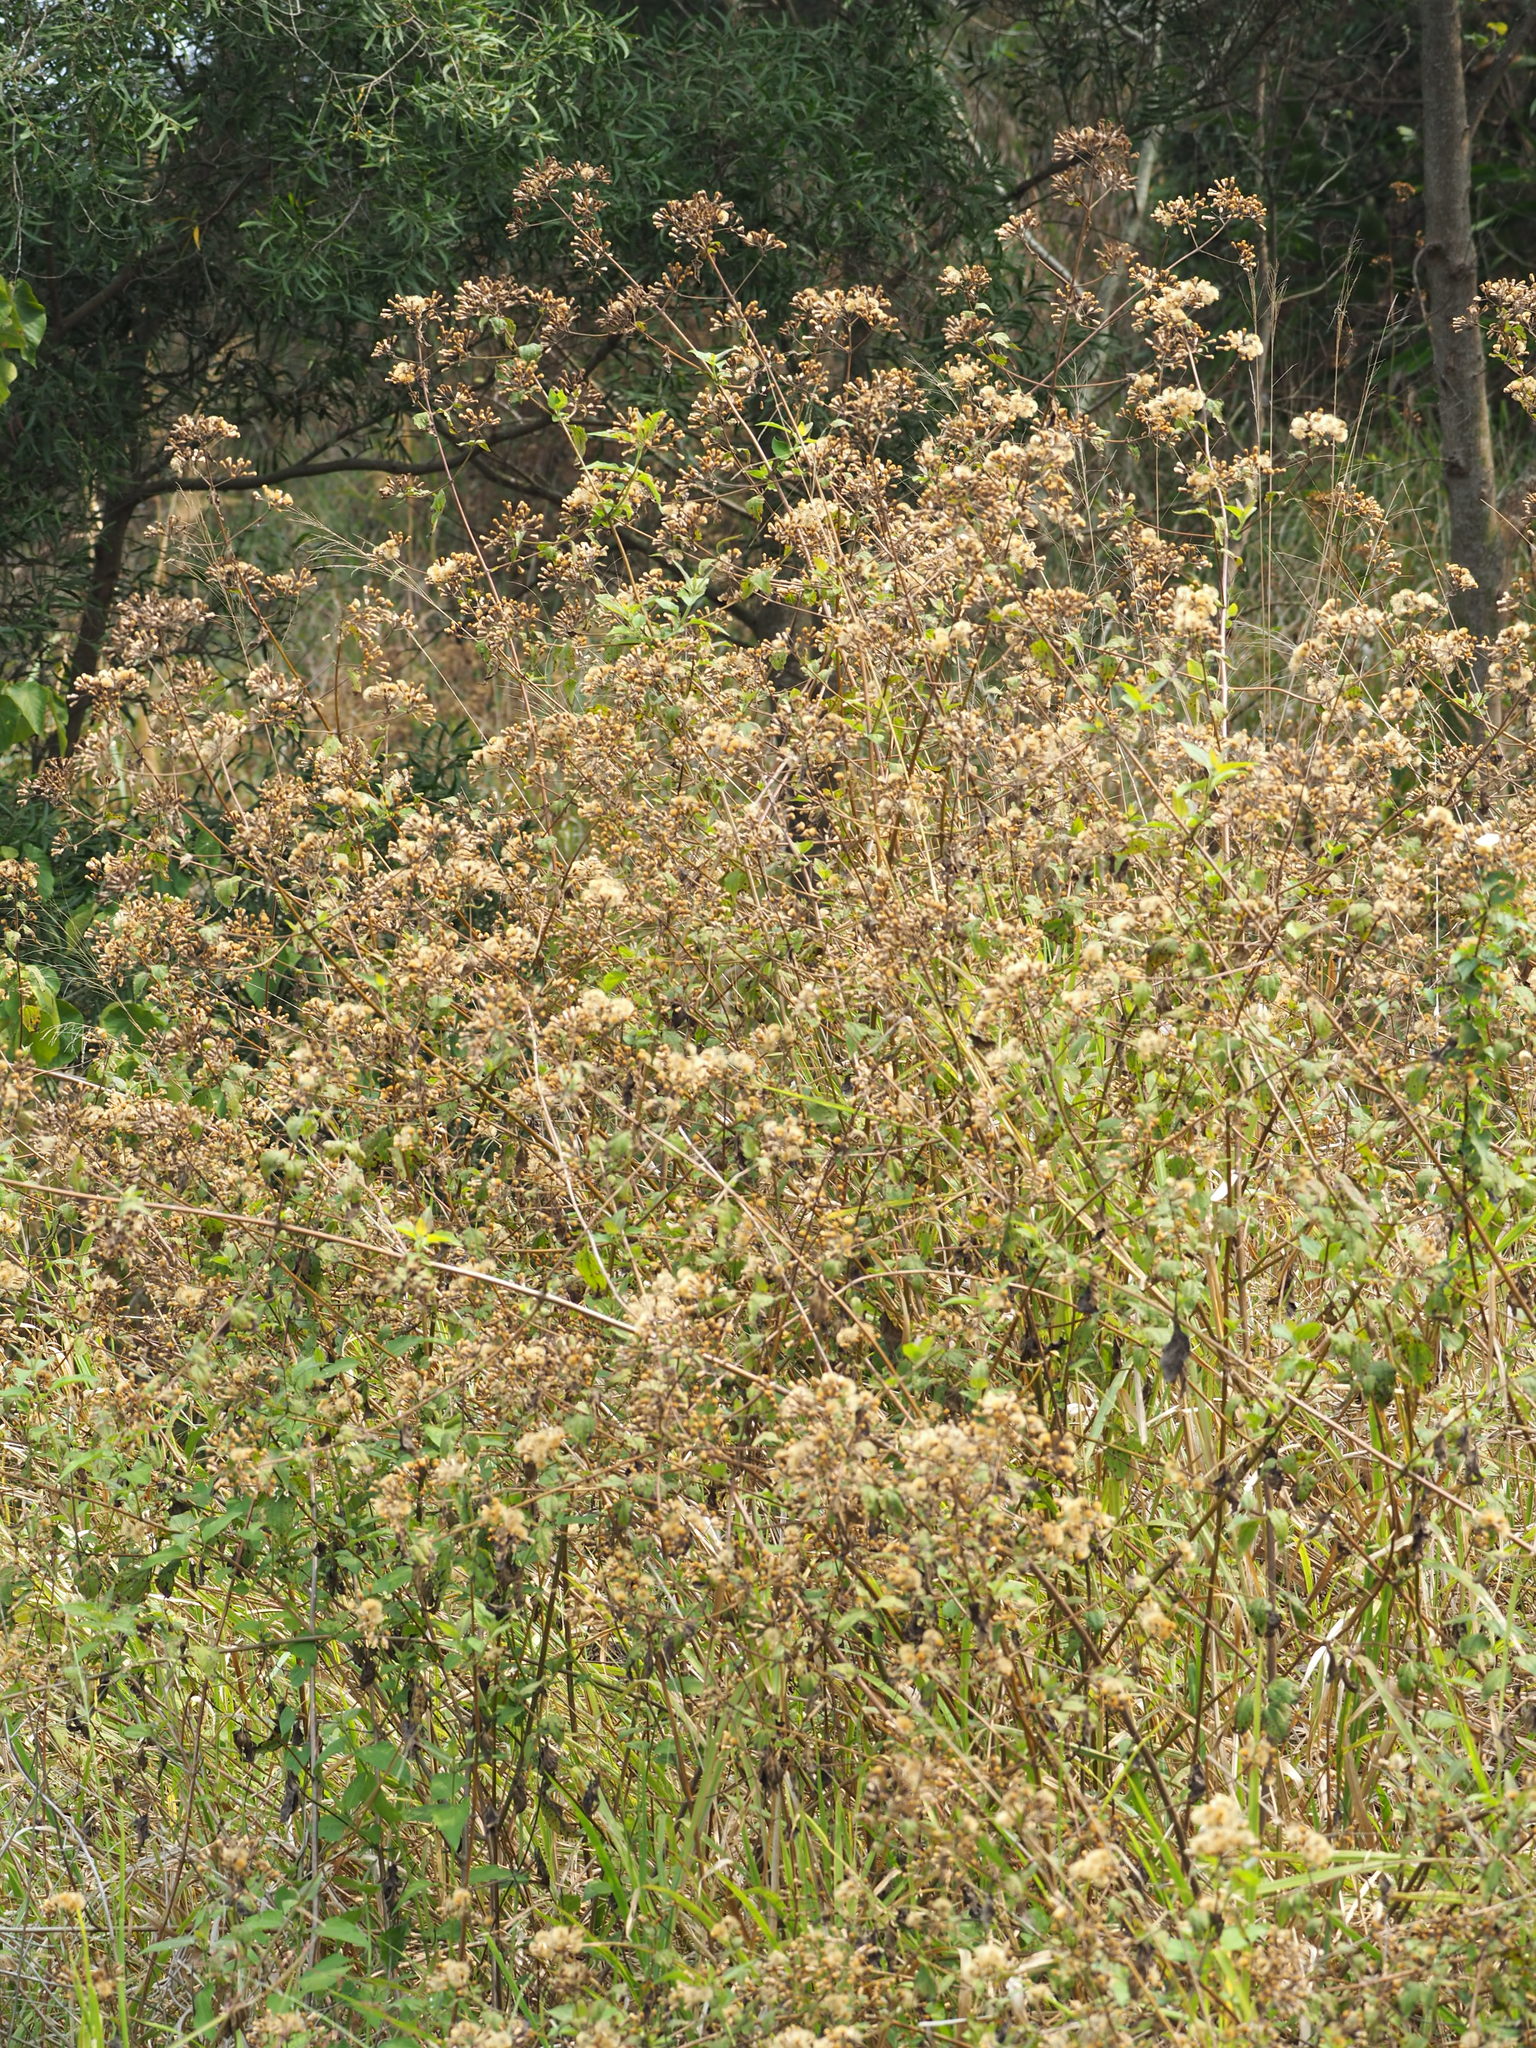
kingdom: Plantae
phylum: Tracheophyta
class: Magnoliopsida
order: Asterales
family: Asteraceae
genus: Chromolaena
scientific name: Chromolaena odorata
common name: Siamweed
